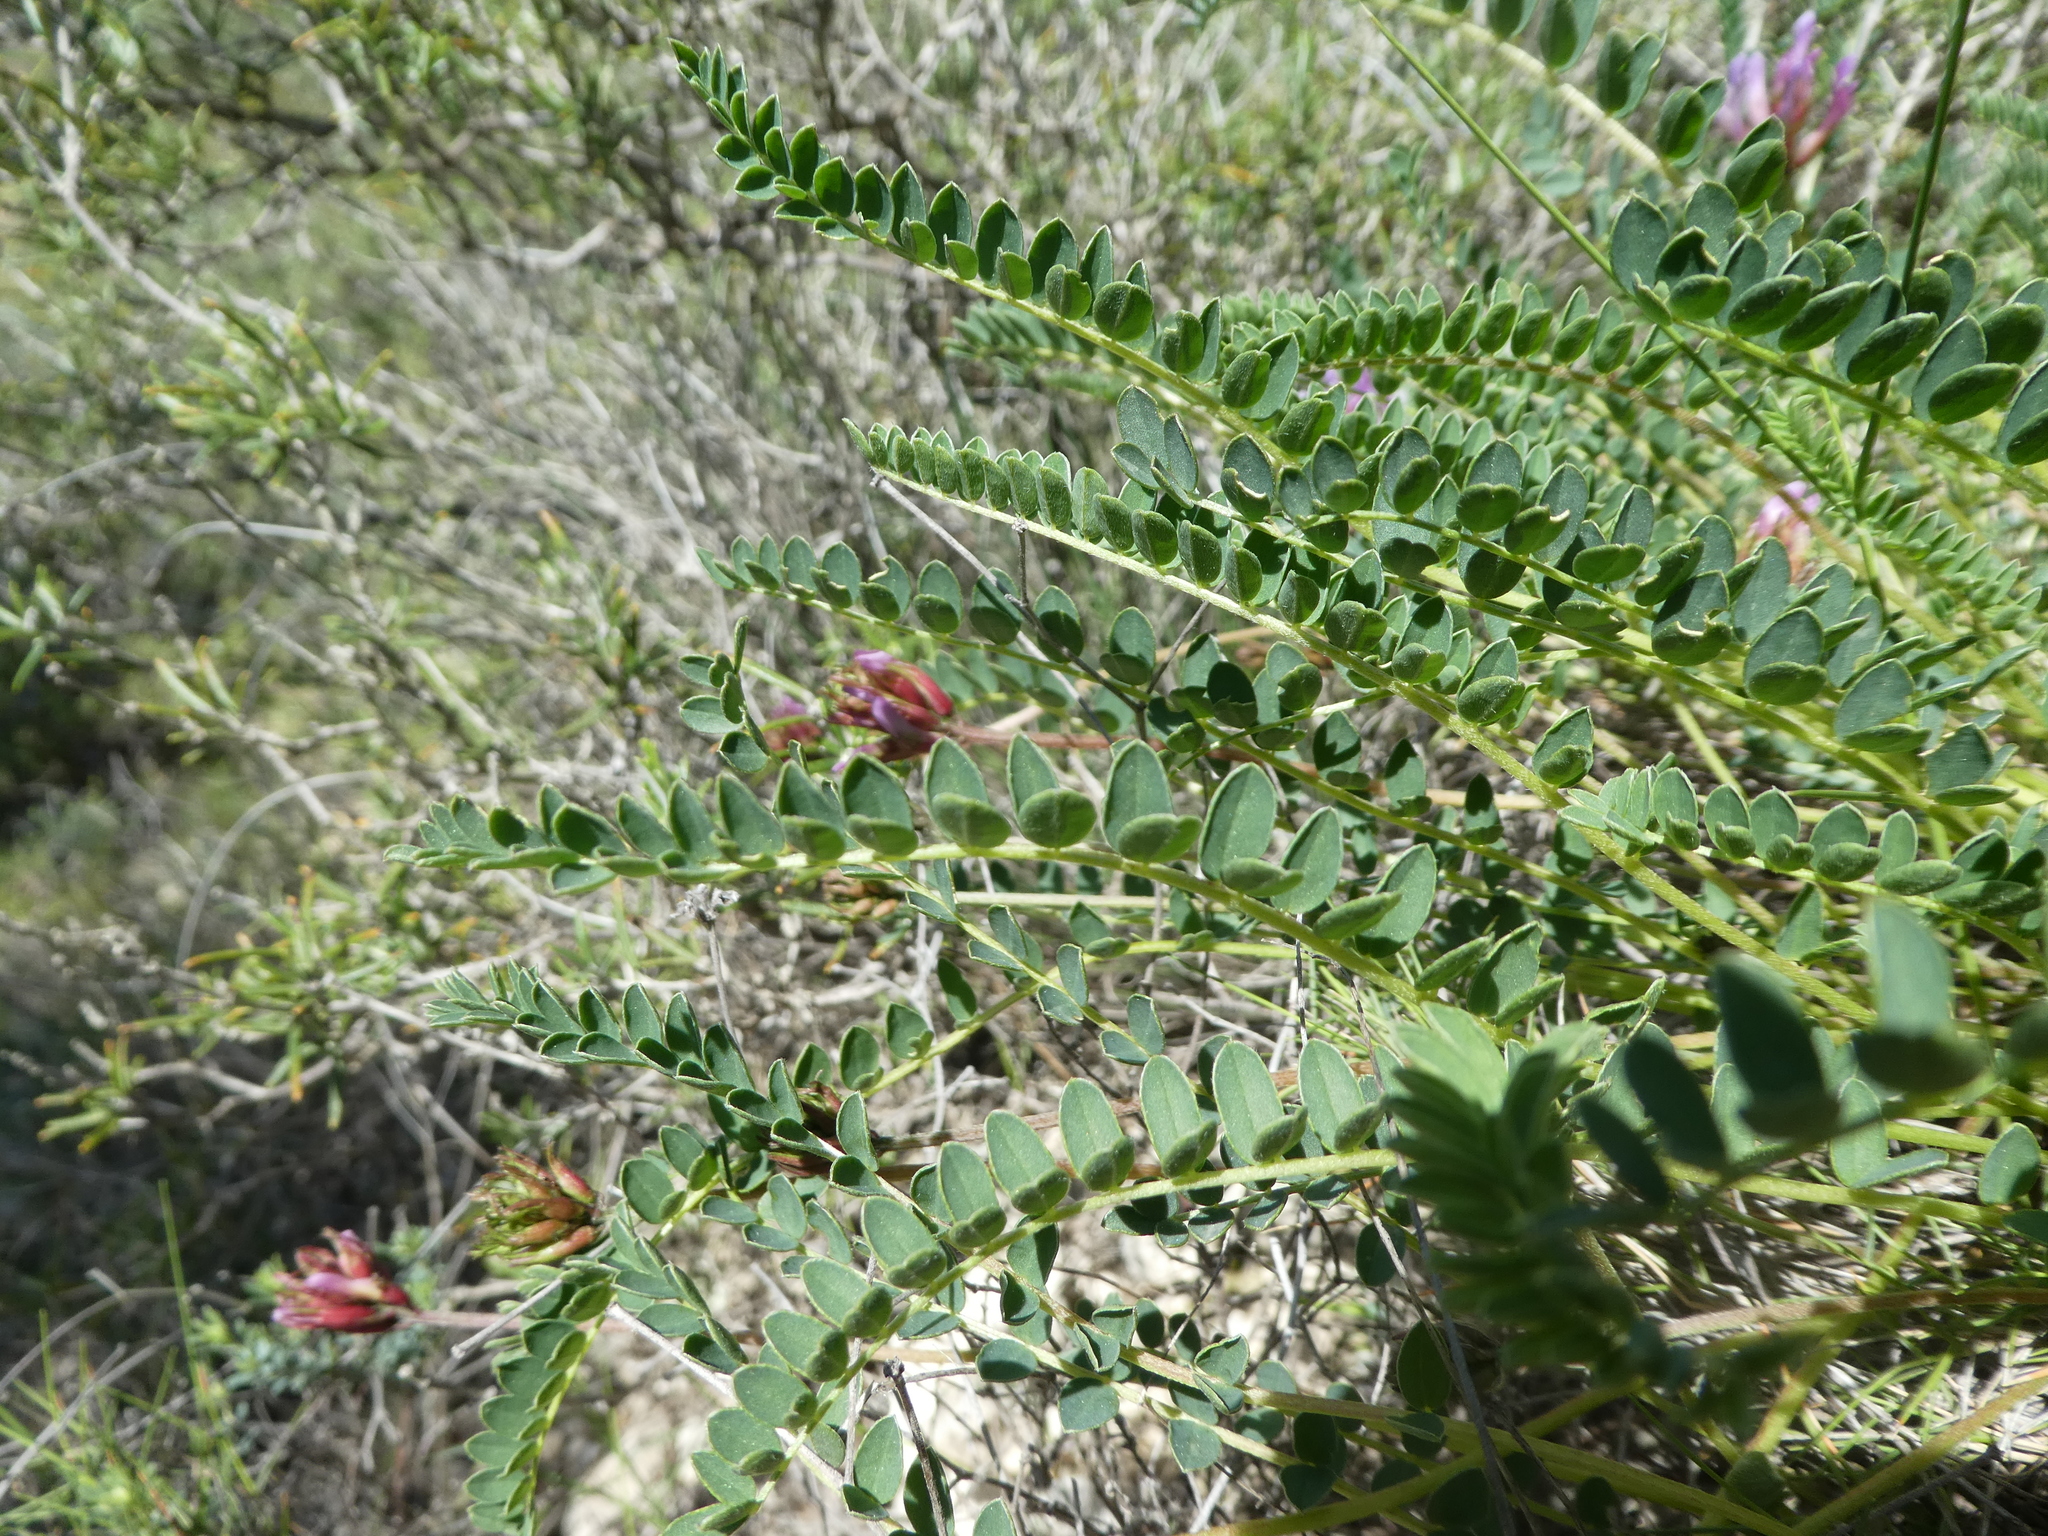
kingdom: Plantae
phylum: Tracheophyta
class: Magnoliopsida
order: Fabales
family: Fabaceae
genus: Astragalus
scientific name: Astragalus monspessulanus
